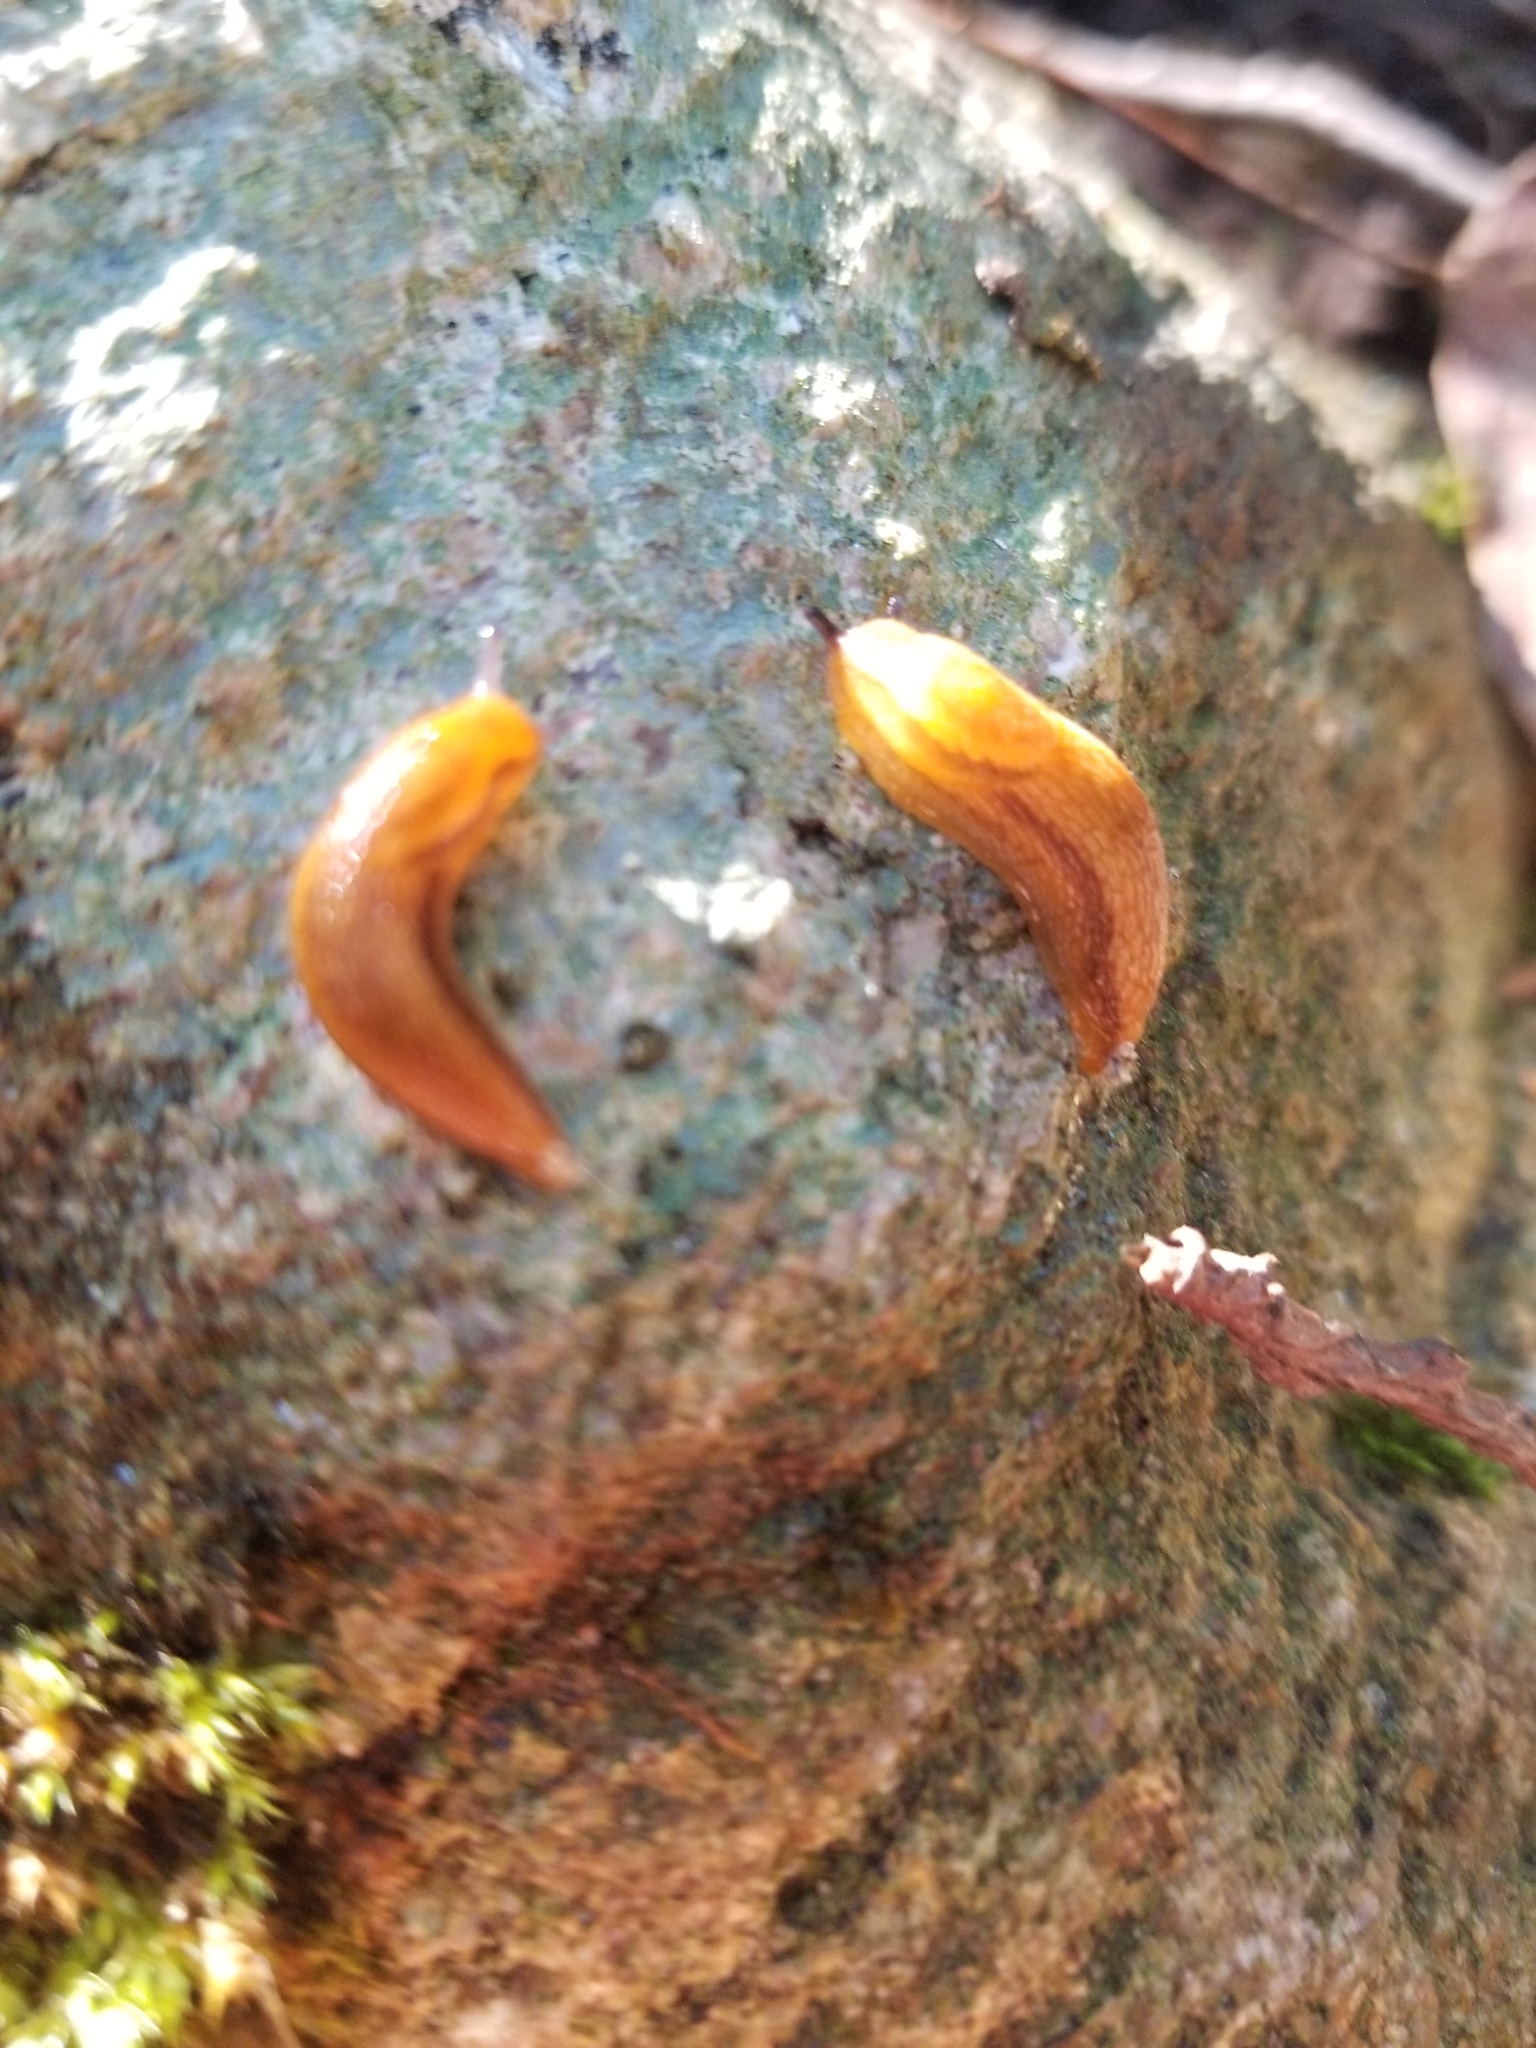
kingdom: Animalia
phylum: Mollusca
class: Gastropoda
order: Stylommatophora
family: Arionidae
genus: Arion
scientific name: Arion subfuscus
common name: Dusky arion
